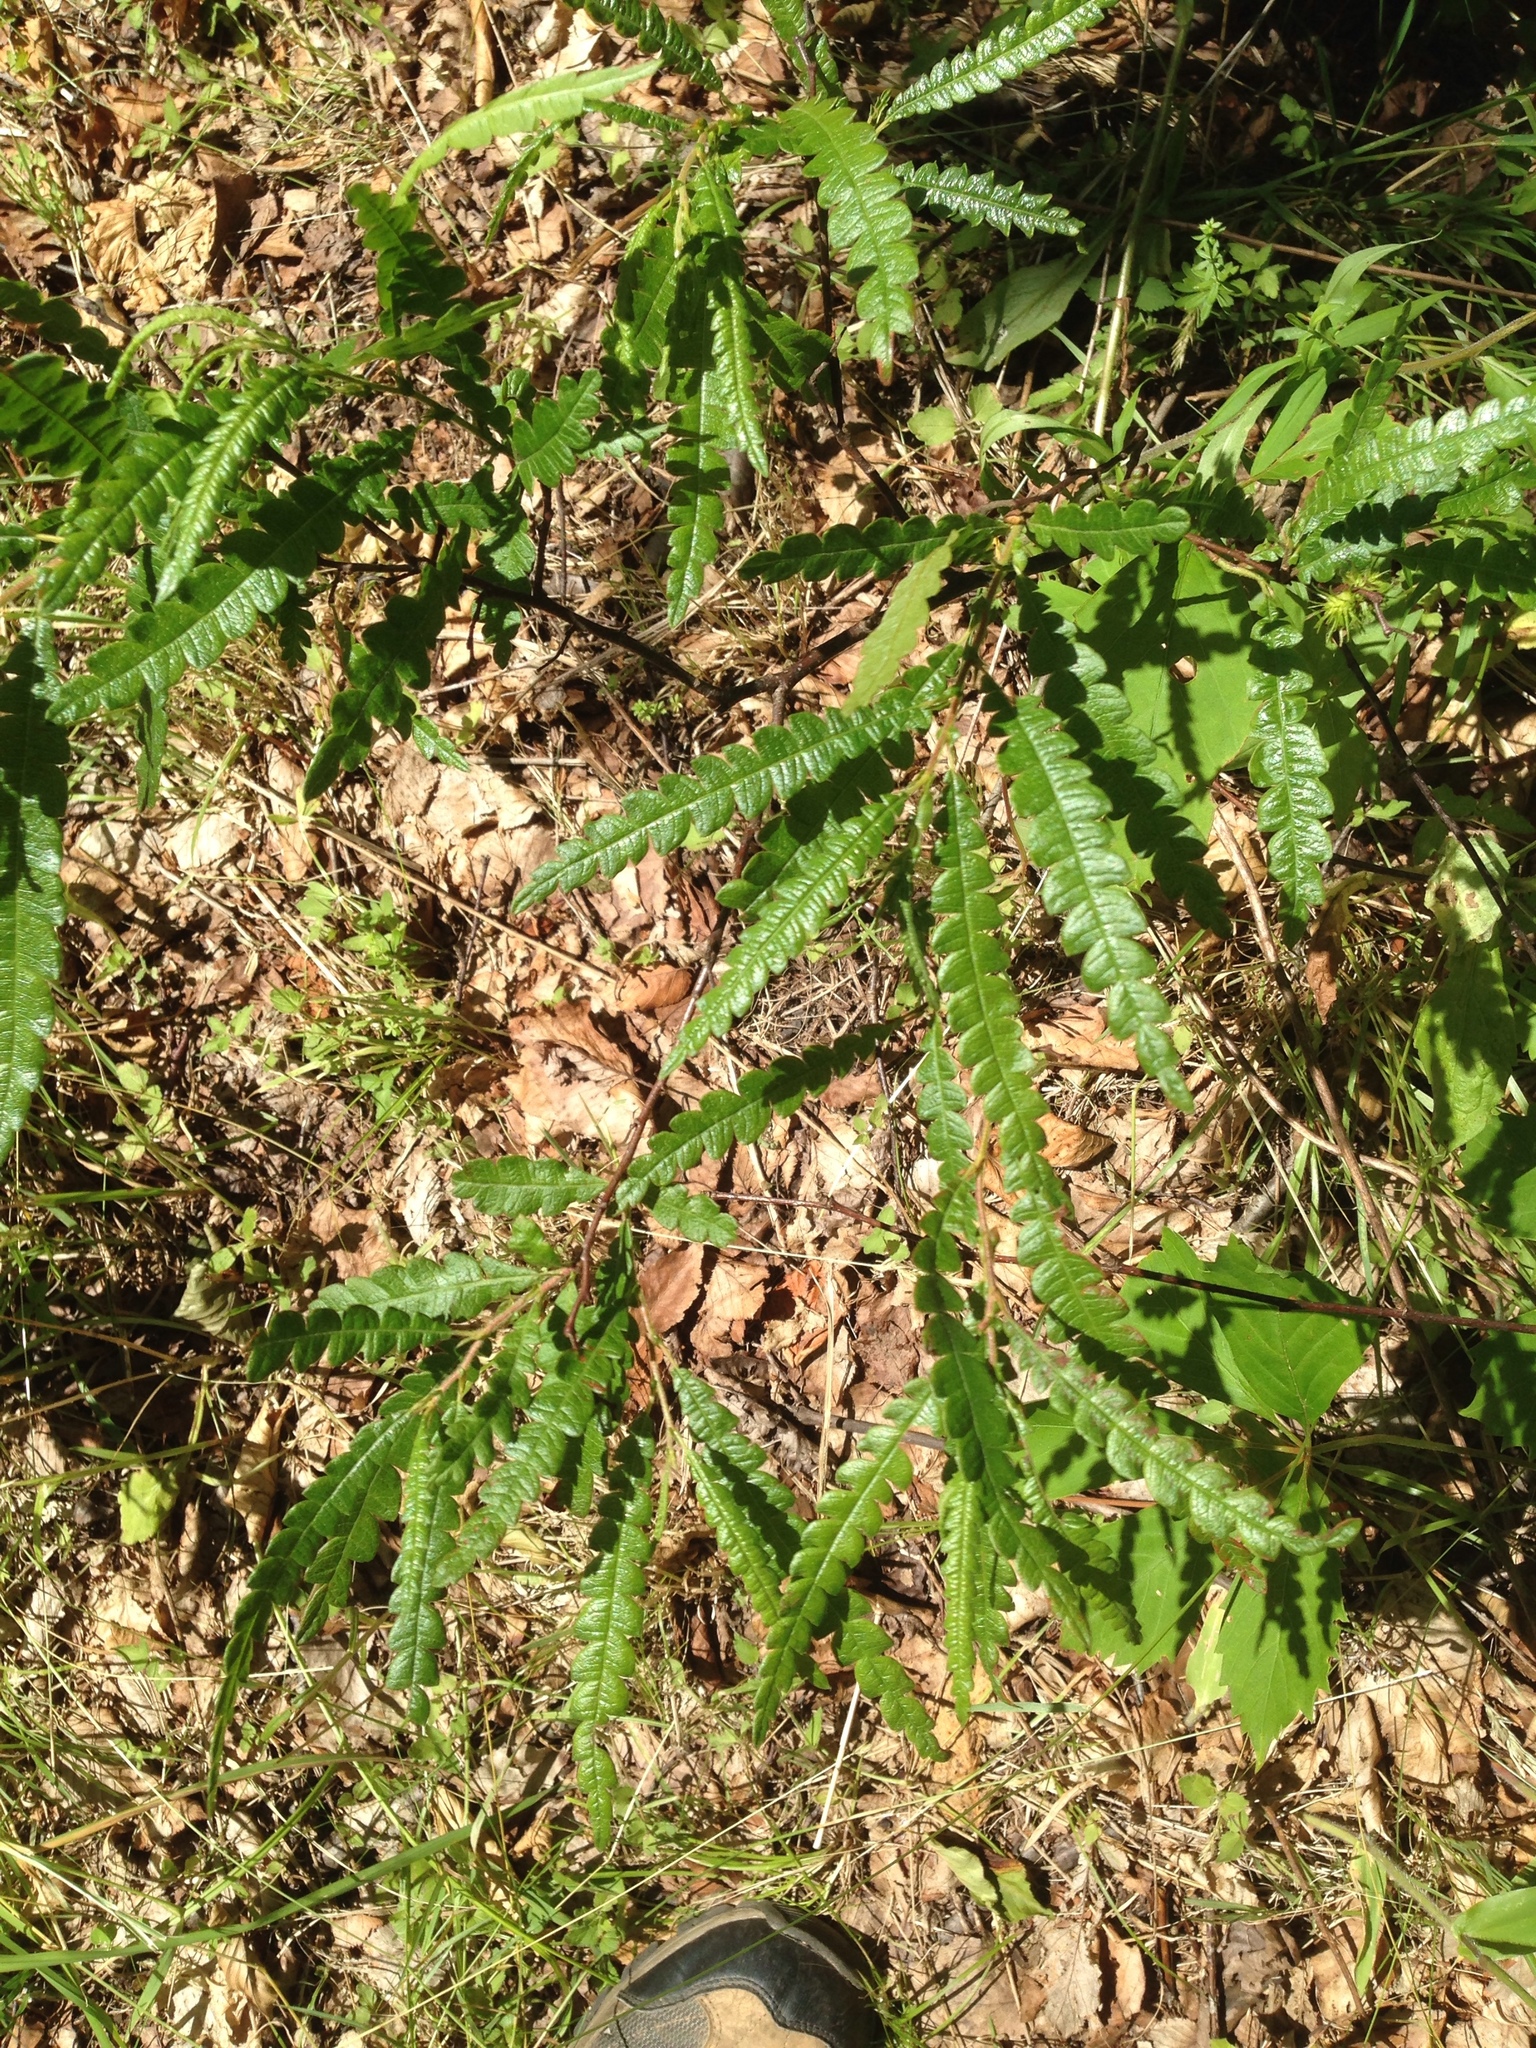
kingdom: Plantae
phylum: Tracheophyta
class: Magnoliopsida
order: Fagales
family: Myricaceae
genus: Comptonia
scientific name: Comptonia peregrina
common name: Sweet-fern
